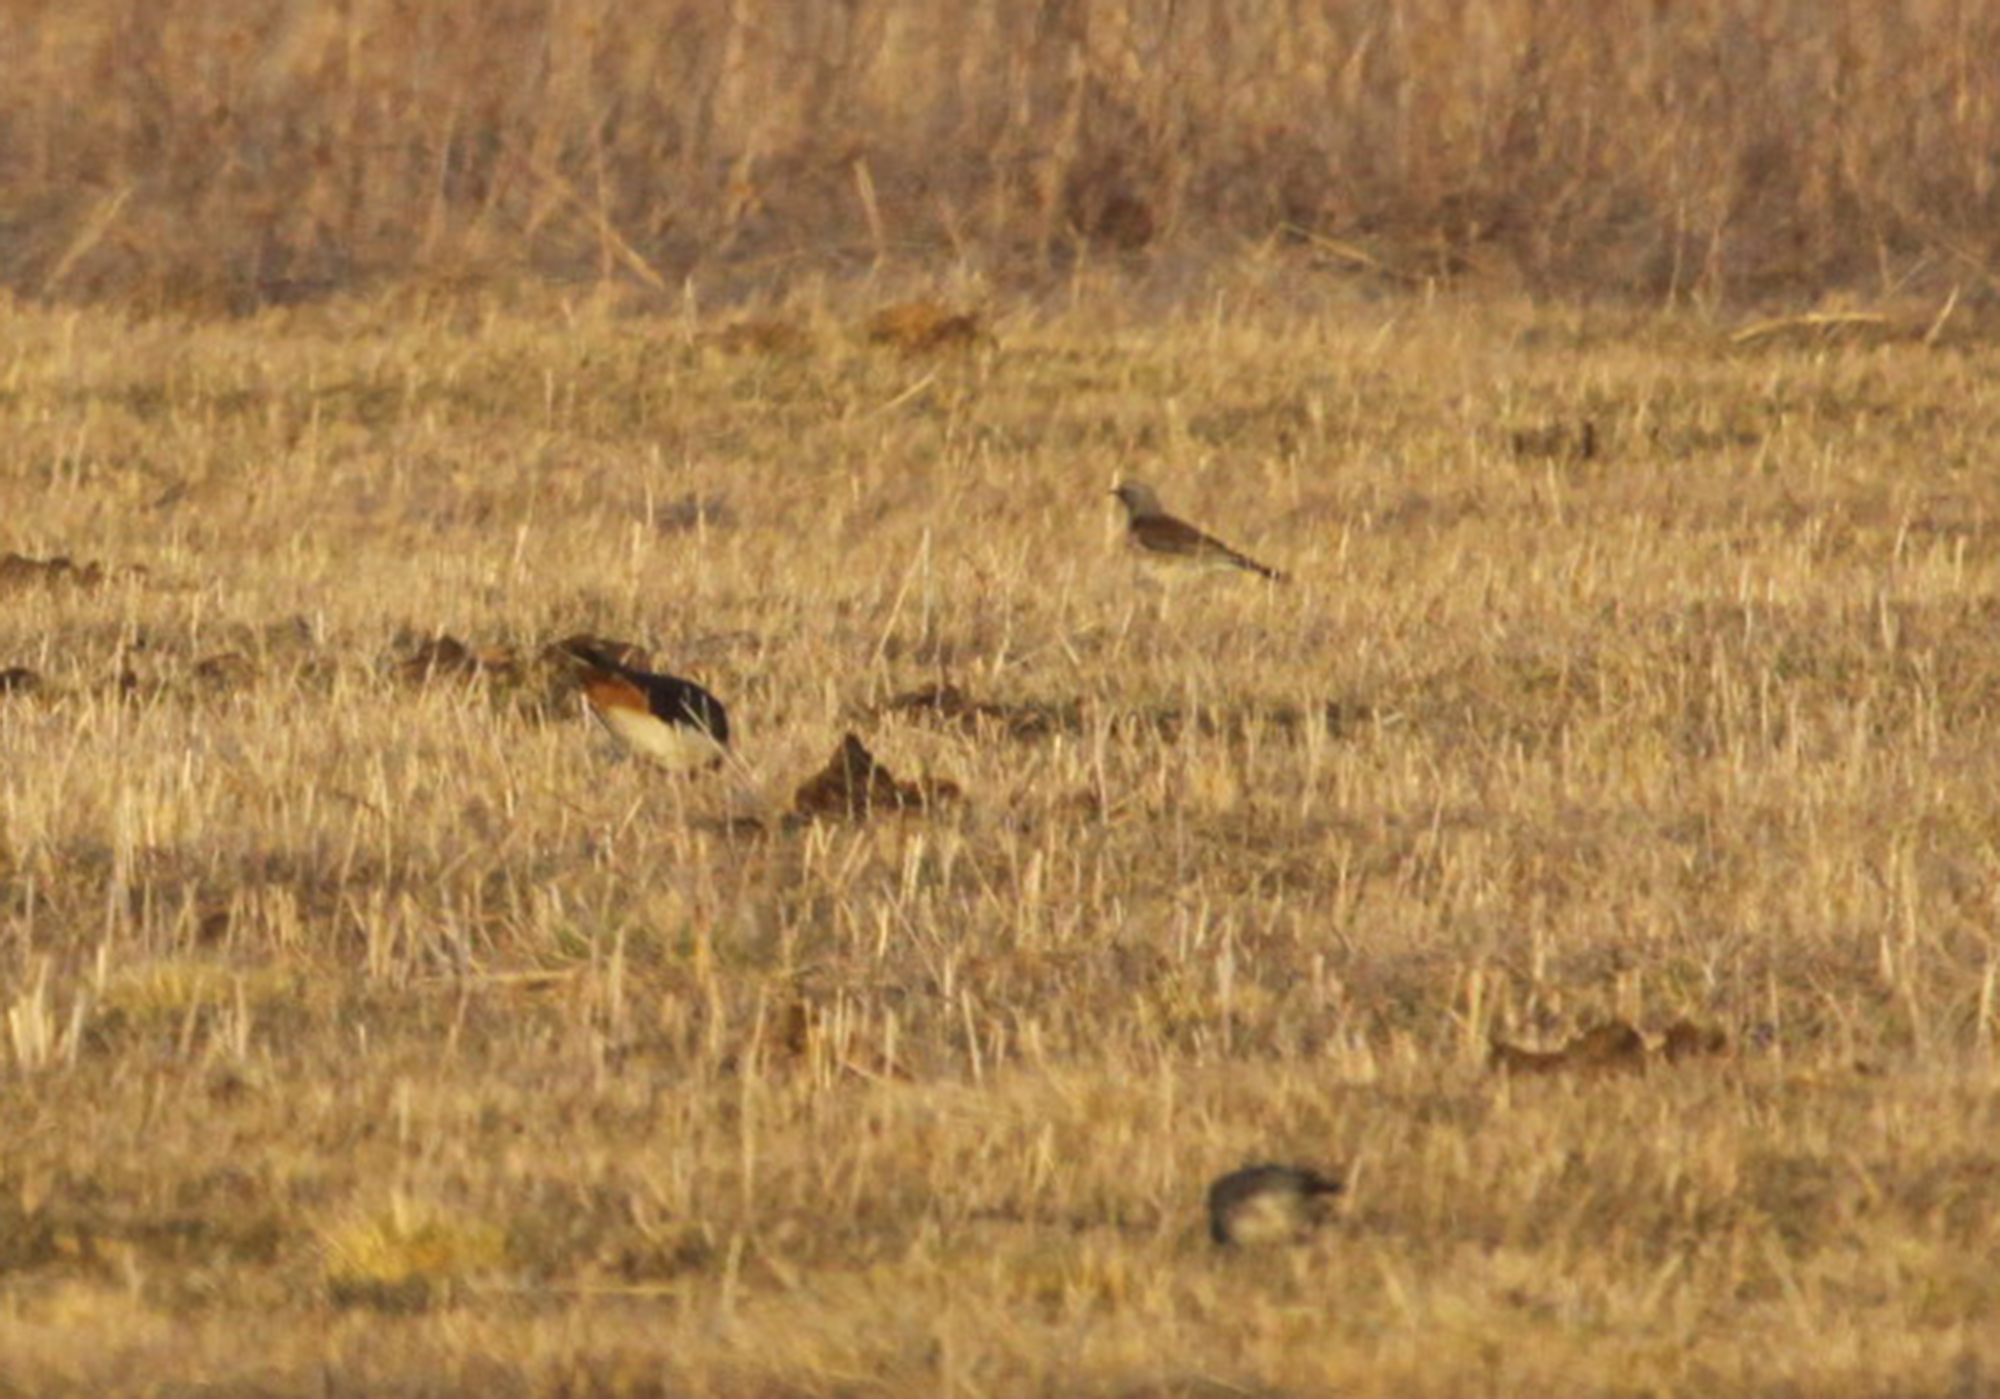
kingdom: Animalia
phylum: Chordata
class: Aves
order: Passeriformes
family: Turdidae
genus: Turdus
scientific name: Turdus pilaris
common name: Fieldfare
